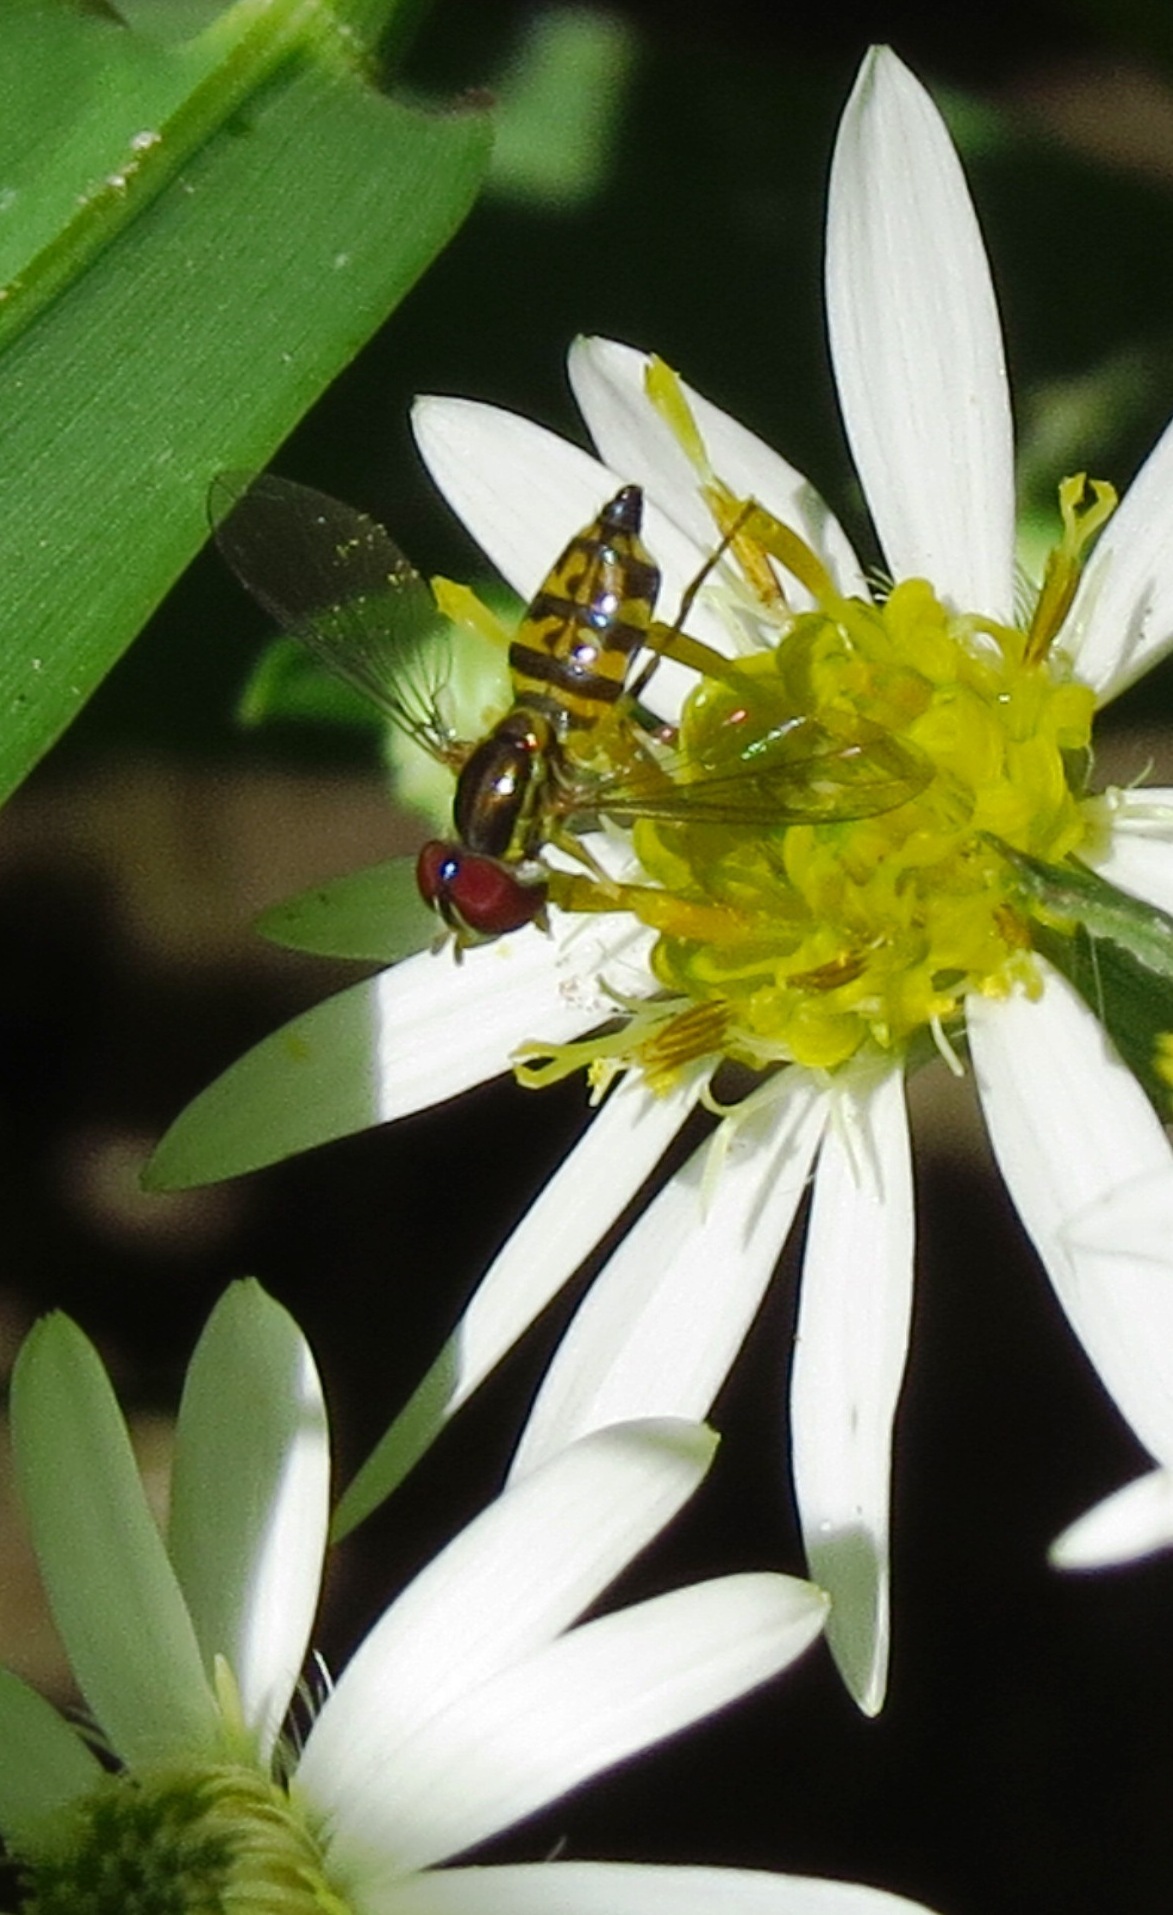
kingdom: Animalia
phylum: Arthropoda
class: Insecta
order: Diptera
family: Syrphidae
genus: Toxomerus
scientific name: Toxomerus geminatus
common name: Eastern calligrapher
